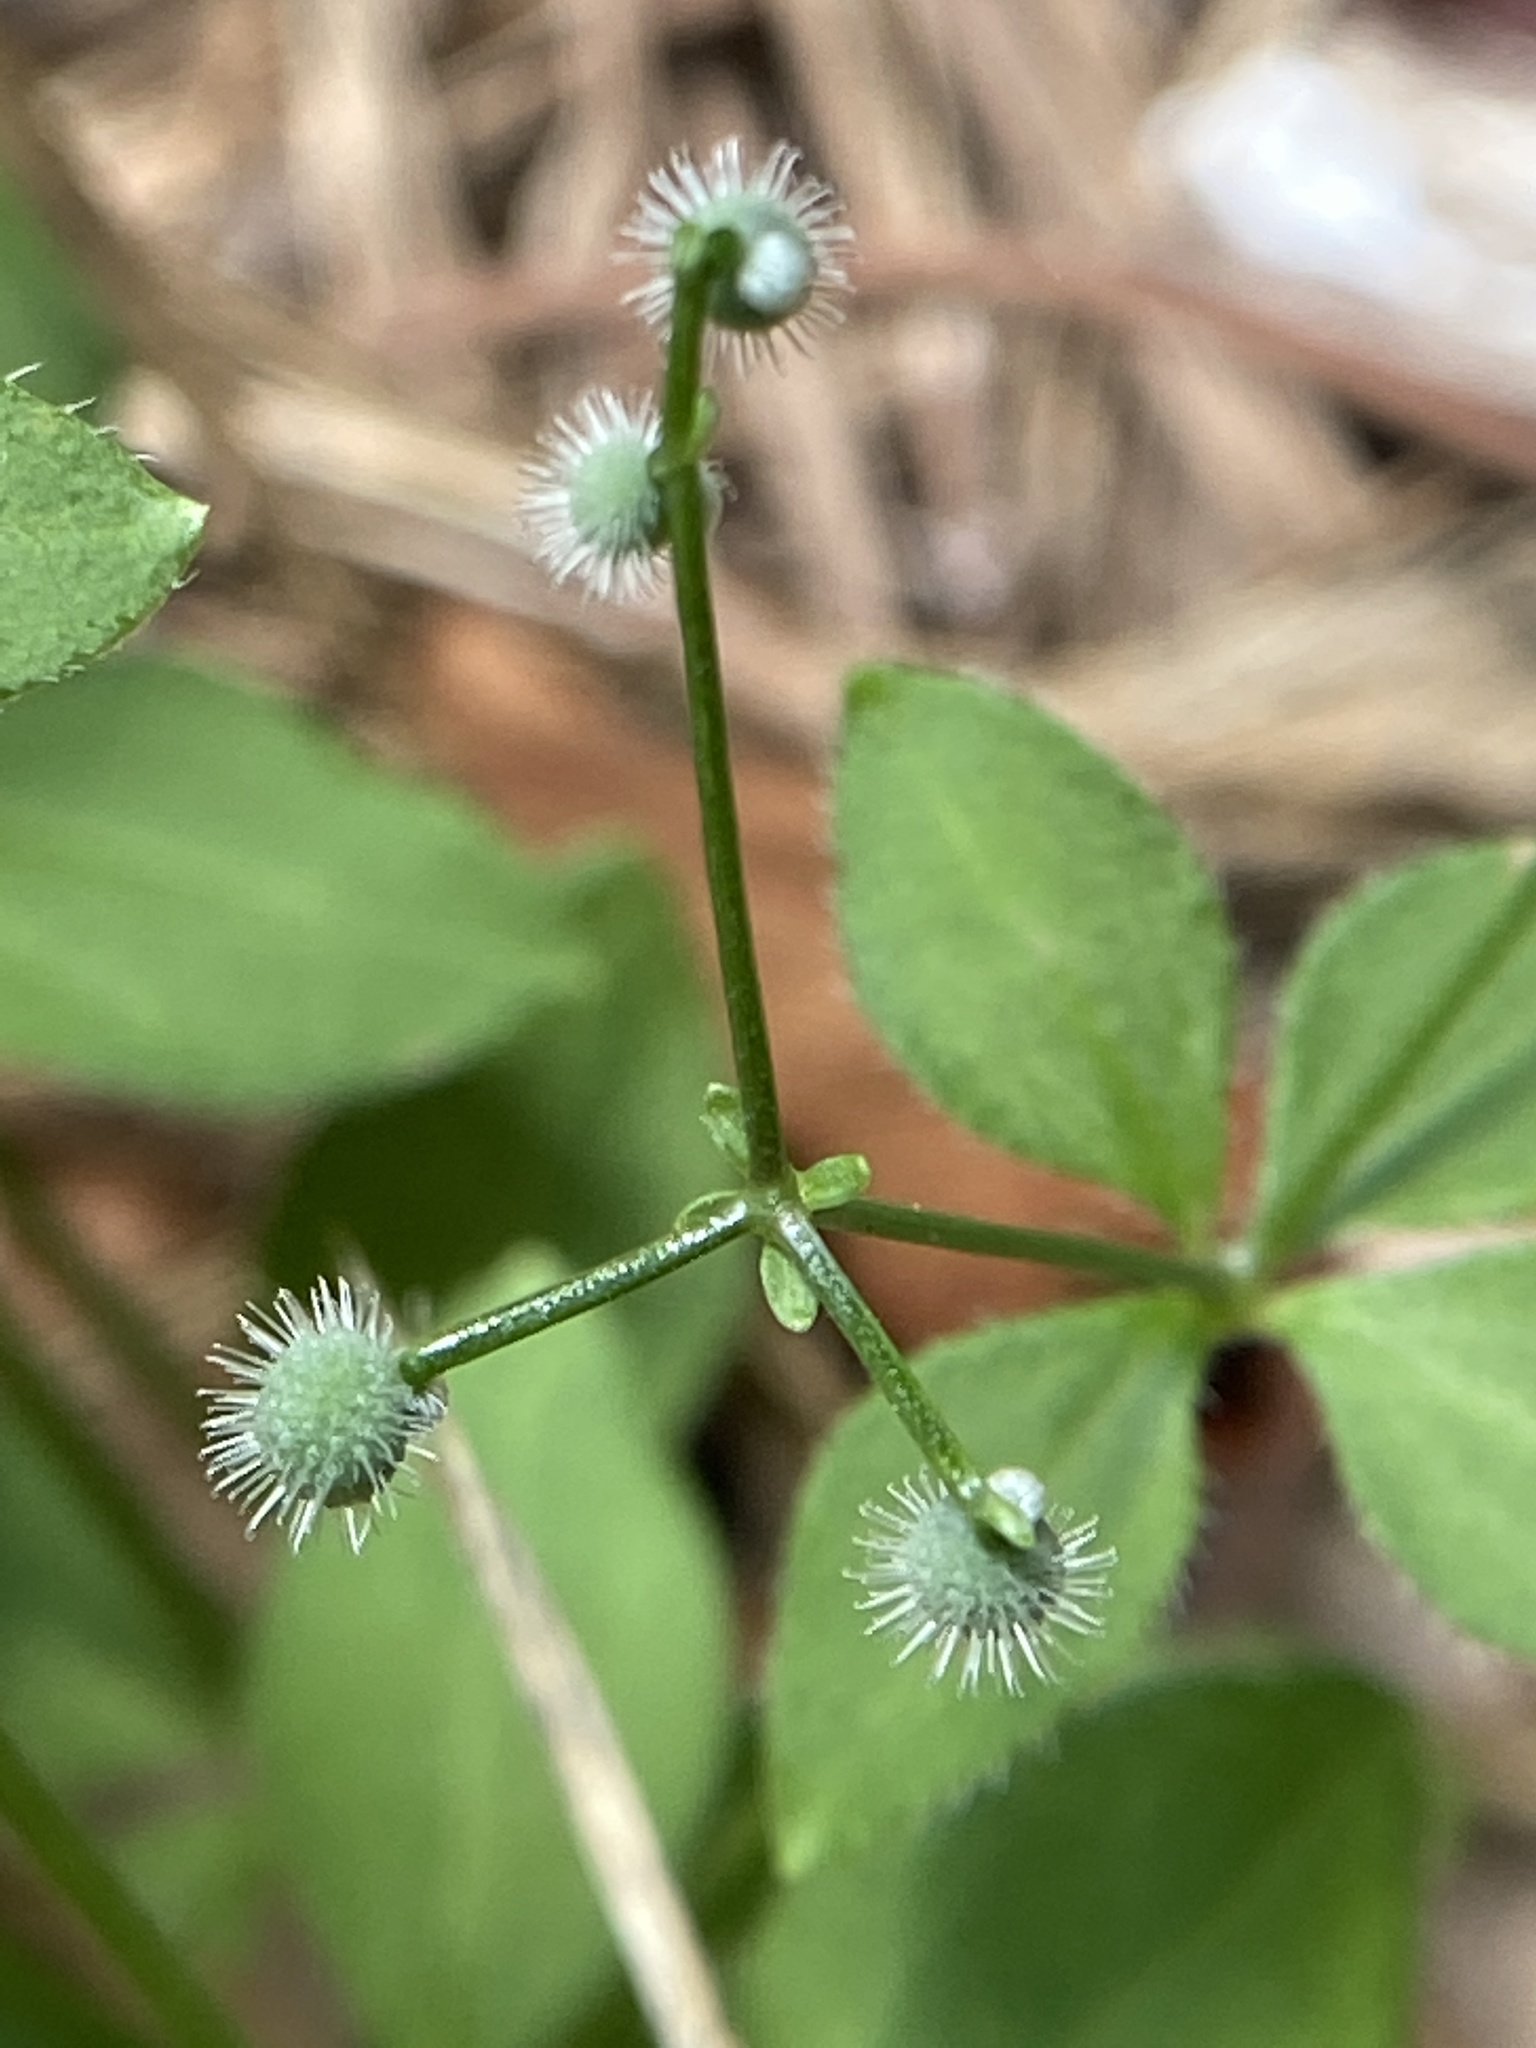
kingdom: Plantae
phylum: Tracheophyta
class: Magnoliopsida
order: Gentianales
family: Rubiaceae
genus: Galium
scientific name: Galium circaezans
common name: Forest bedstraw
